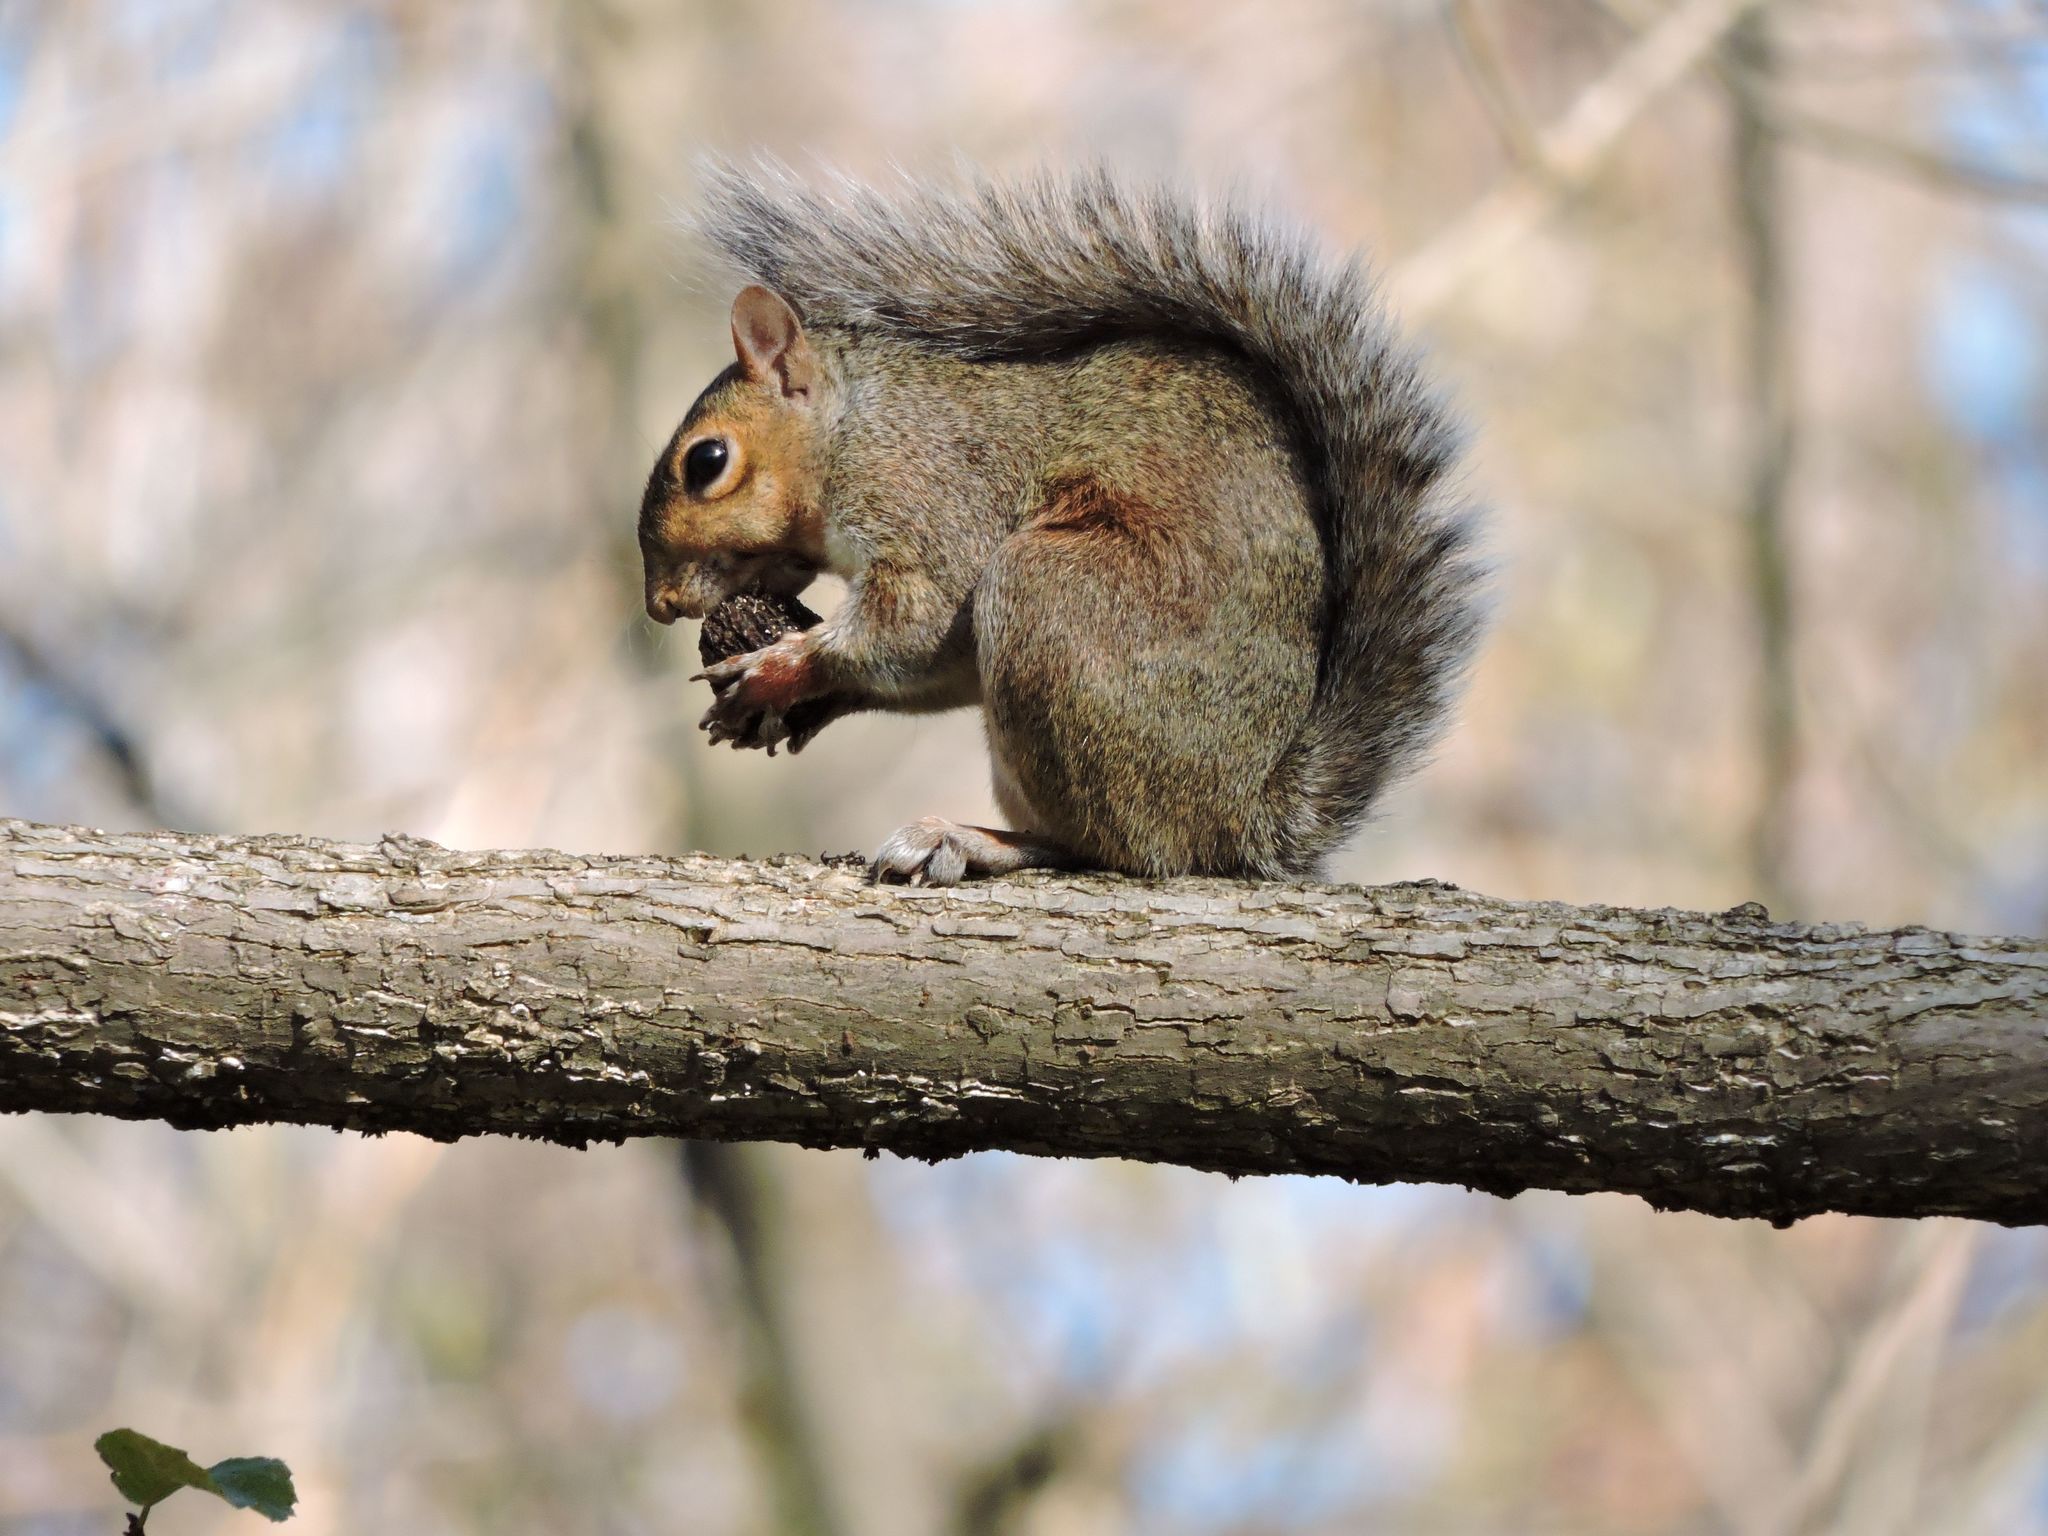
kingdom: Animalia
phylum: Chordata
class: Mammalia
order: Rodentia
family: Sciuridae
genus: Sciurus
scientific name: Sciurus carolinensis
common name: Eastern gray squirrel
